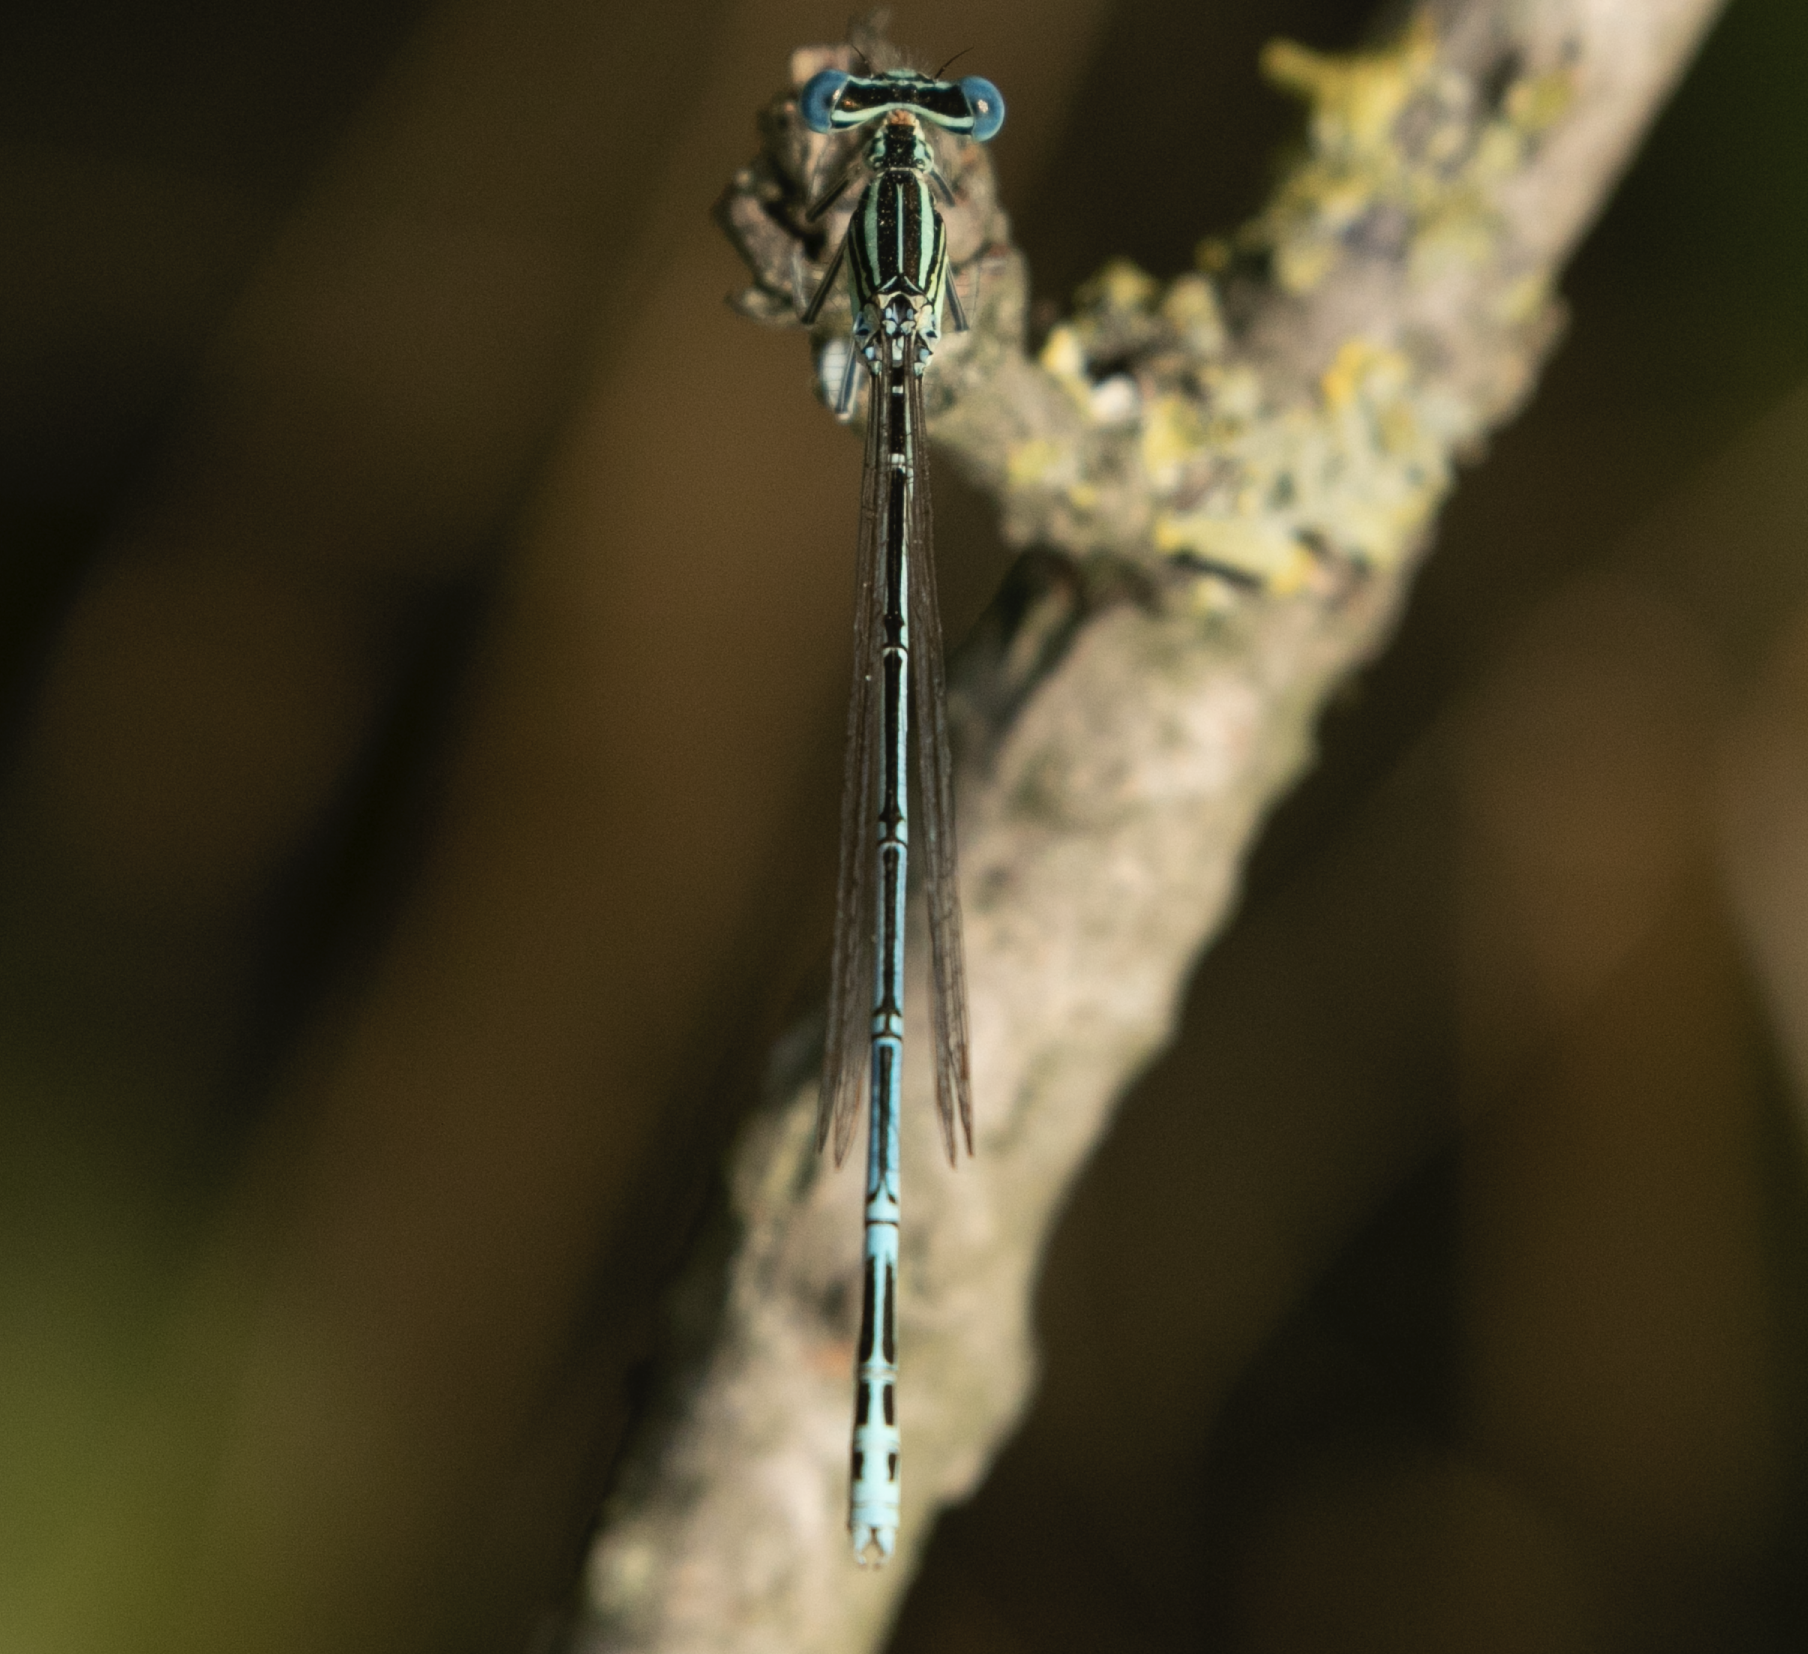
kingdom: Animalia
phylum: Arthropoda
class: Insecta
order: Odonata
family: Platycnemididae
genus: Platycnemis
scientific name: Platycnemis pennipes
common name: White-legged damselfly
